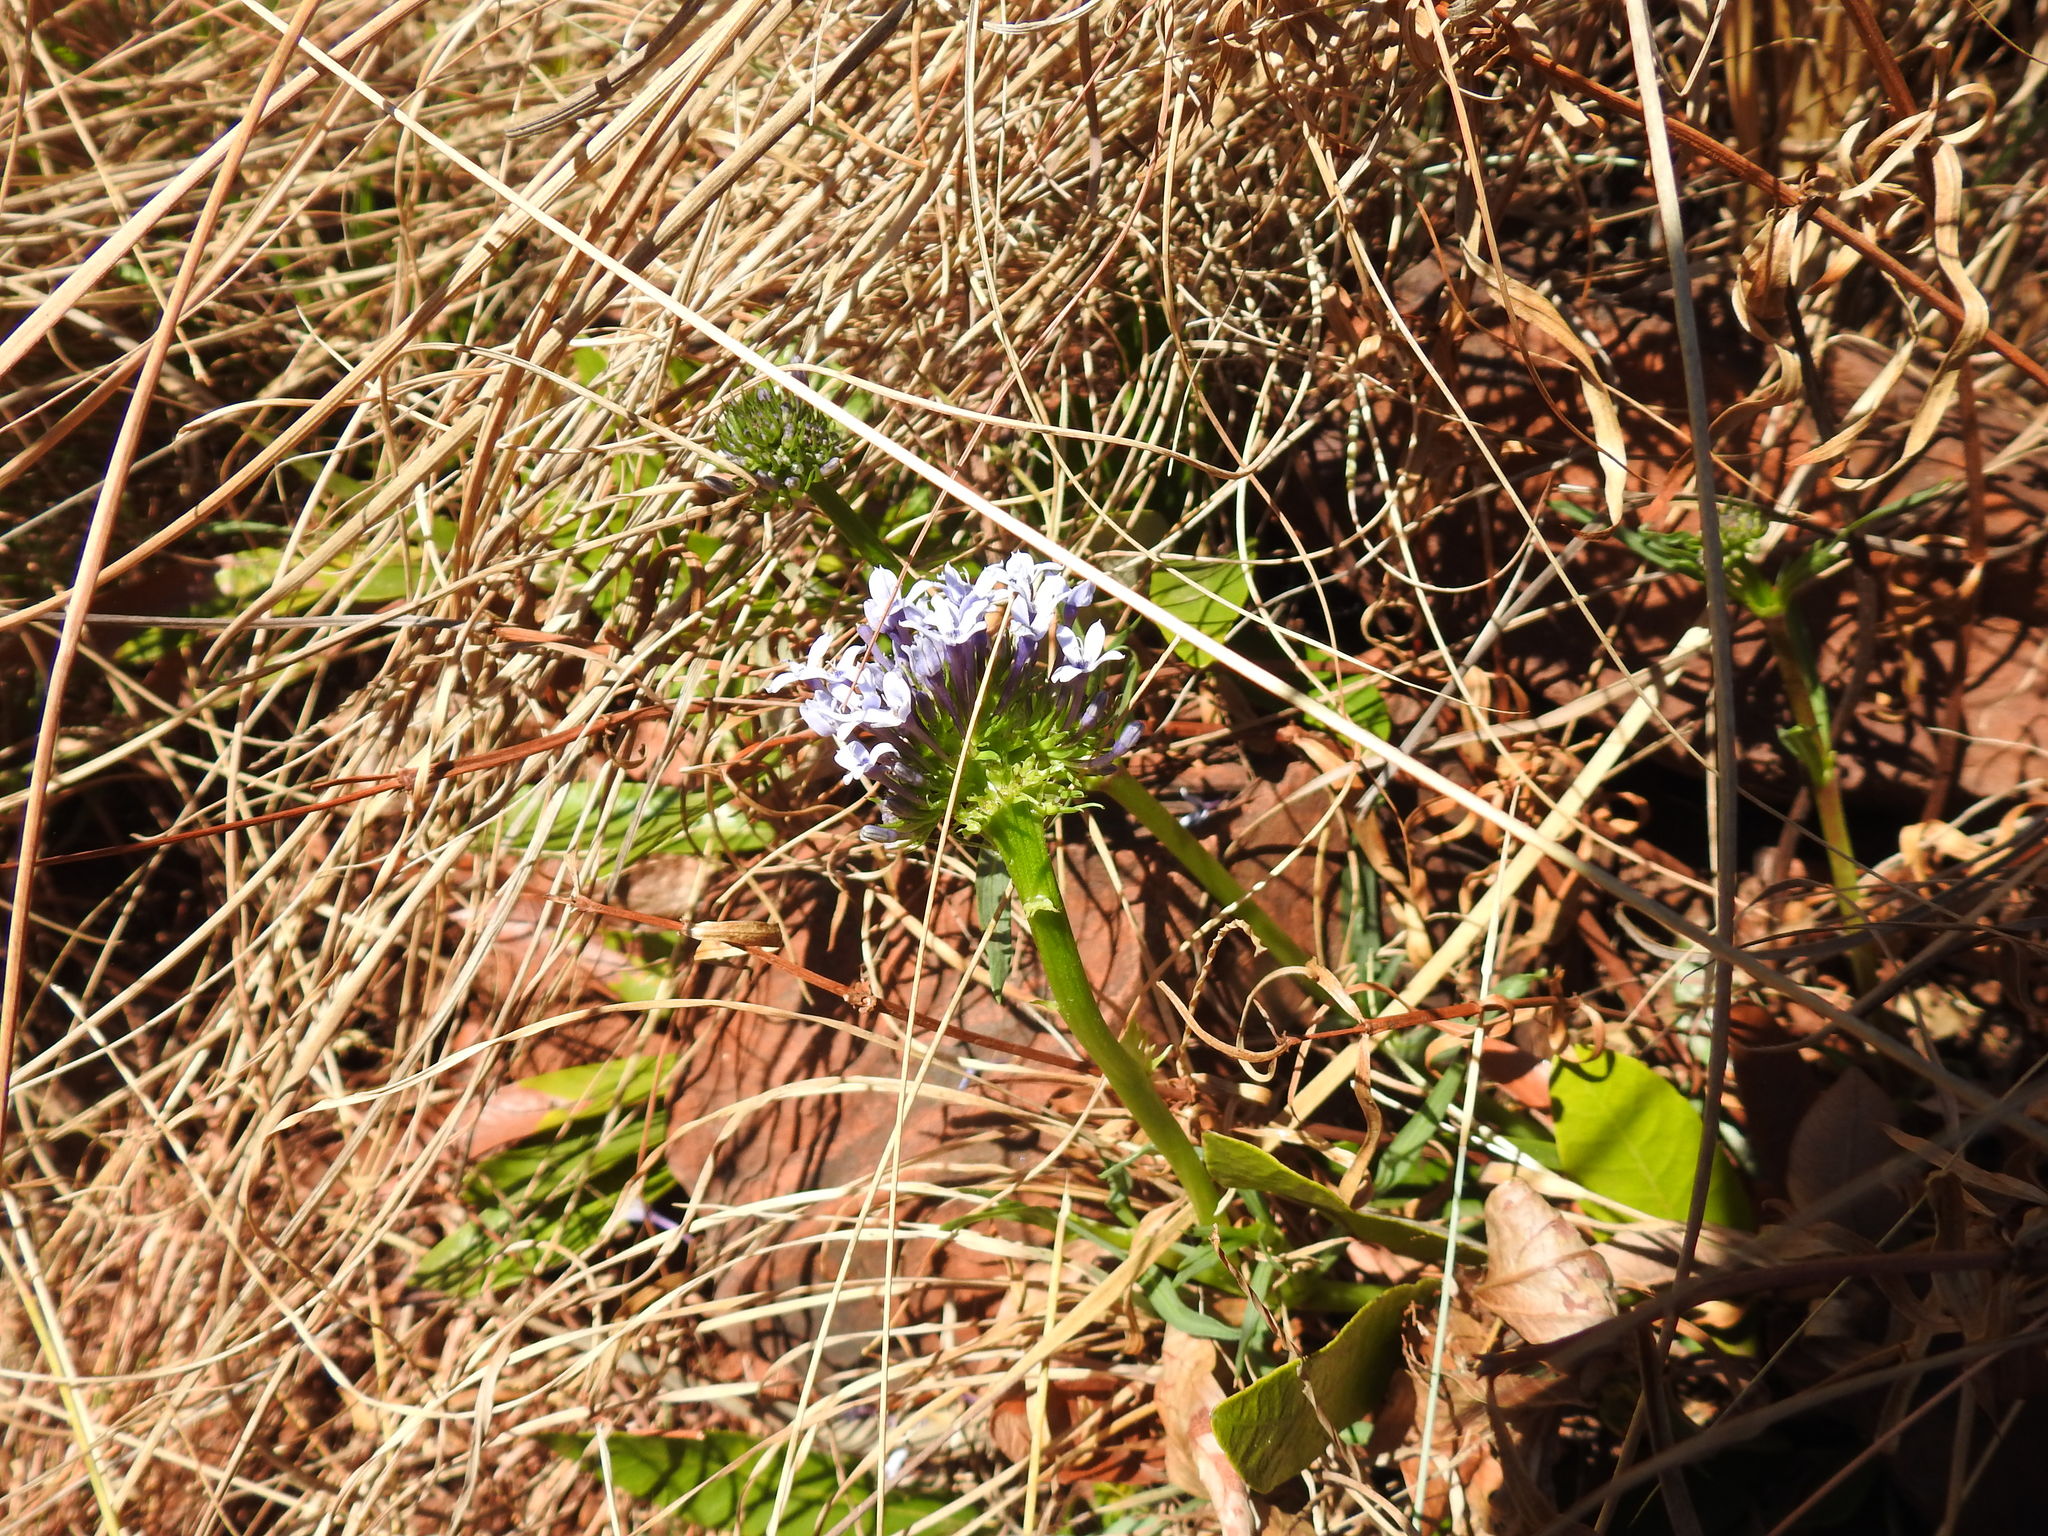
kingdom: Plantae
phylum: Tracheophyta
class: Magnoliopsida
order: Gentianales
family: Rubiaceae
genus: Pentanisia
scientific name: Pentanisia prunelloides
